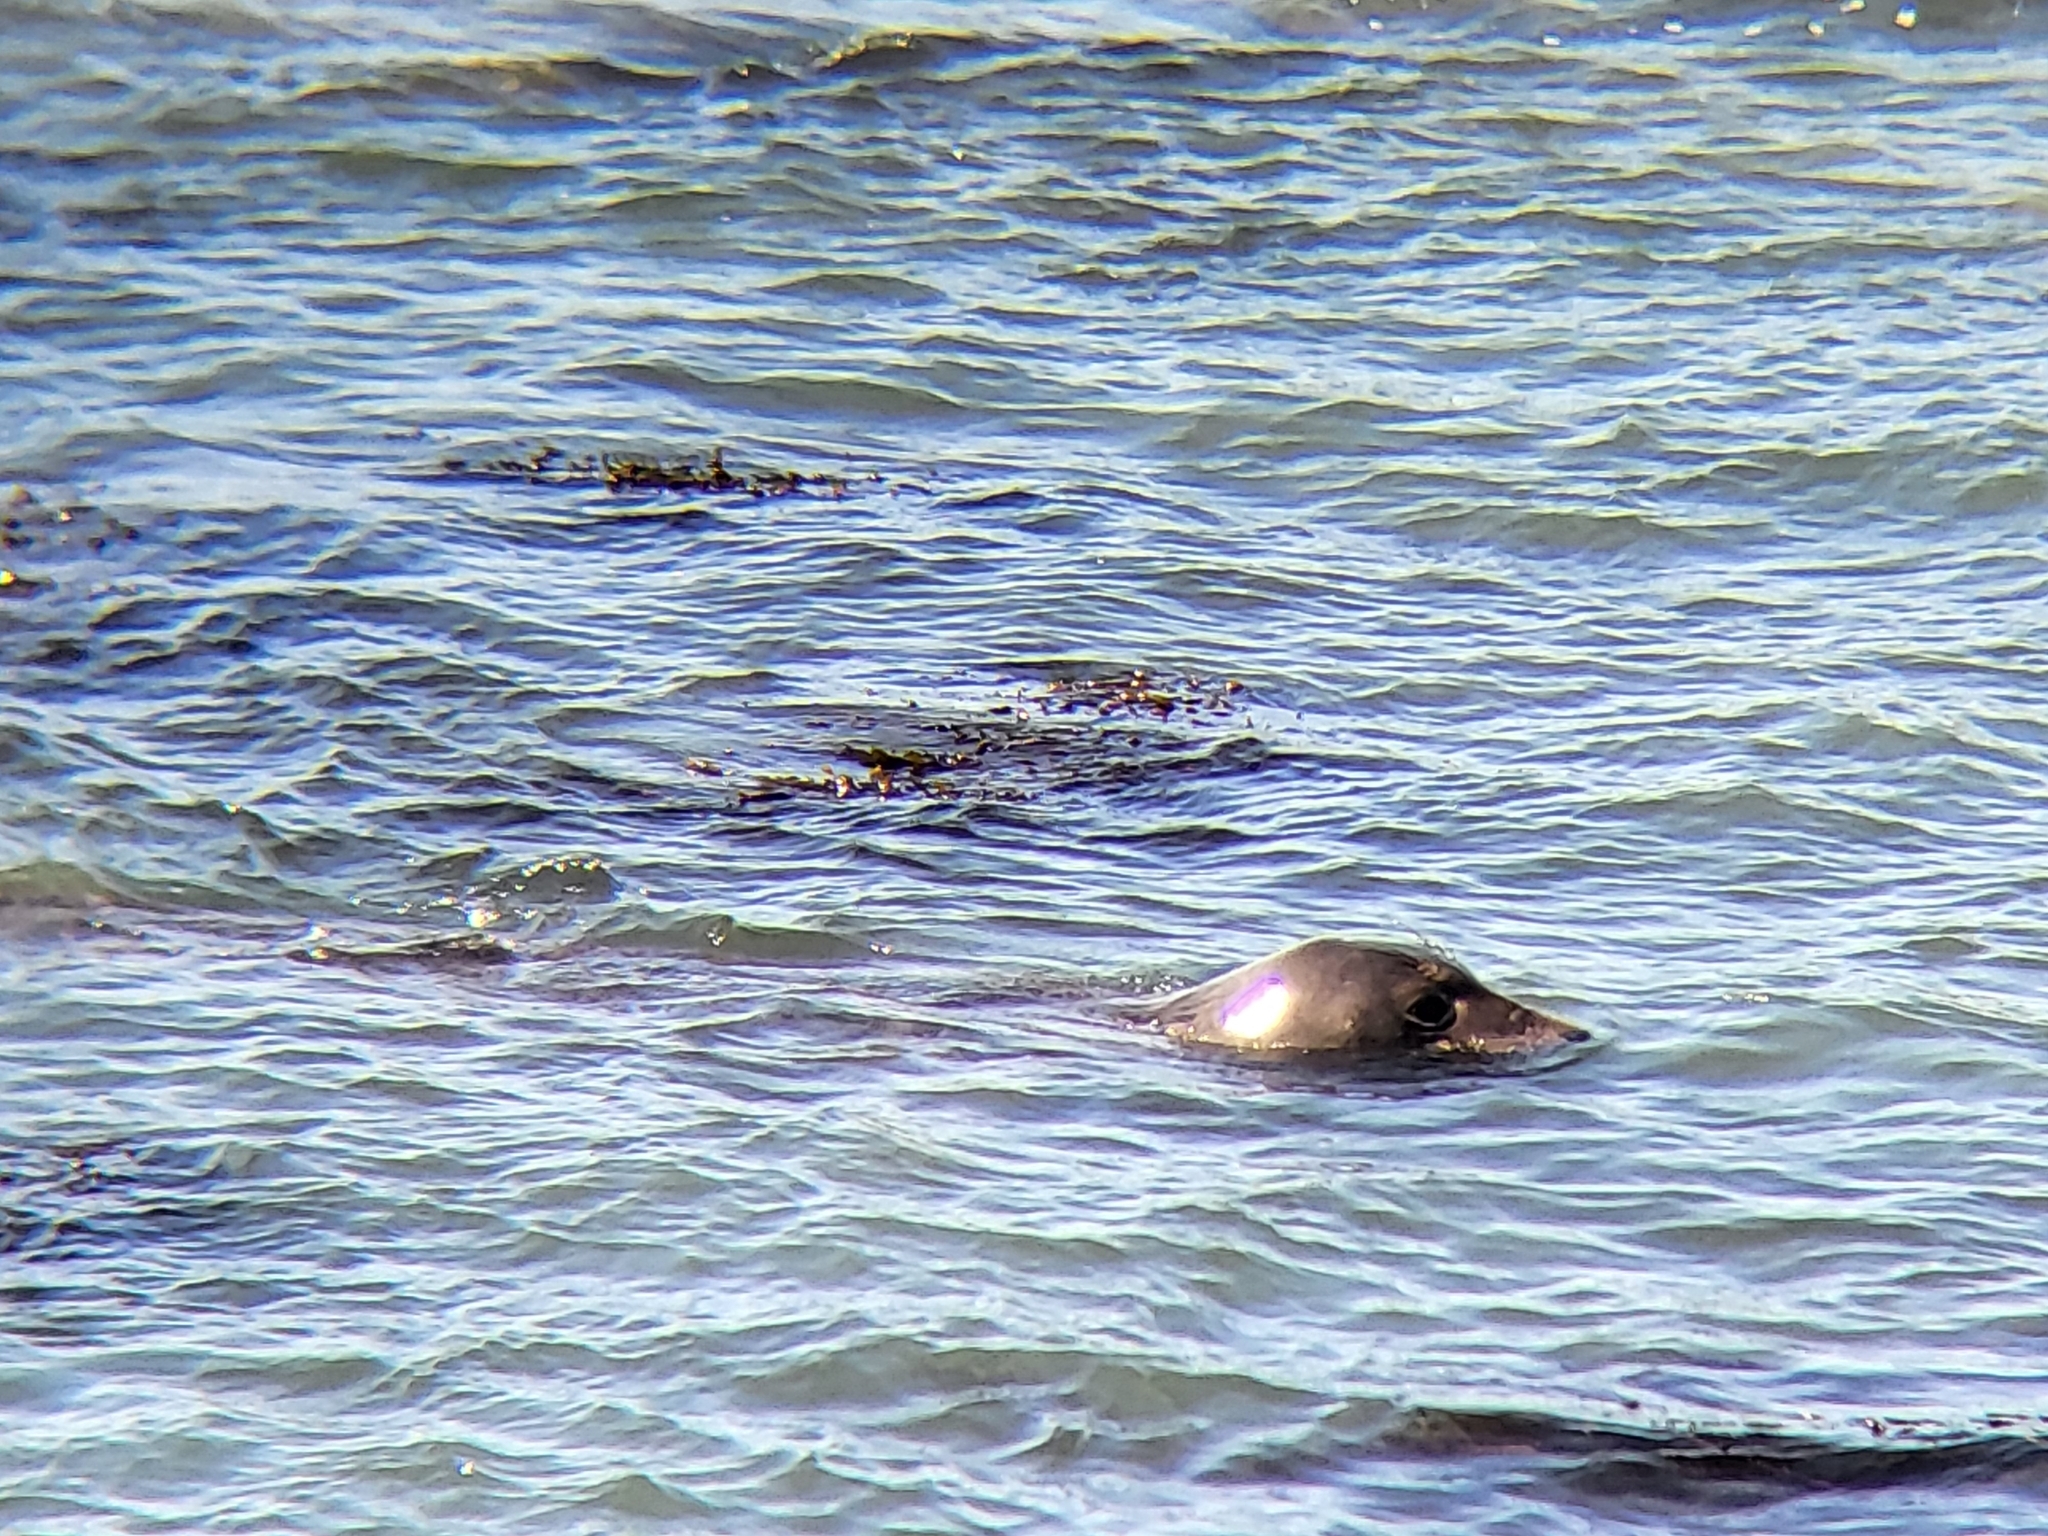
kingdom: Animalia
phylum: Chordata
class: Mammalia
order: Carnivora
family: Phocidae
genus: Mirounga
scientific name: Mirounga angustirostris
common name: Northern elephant seal
